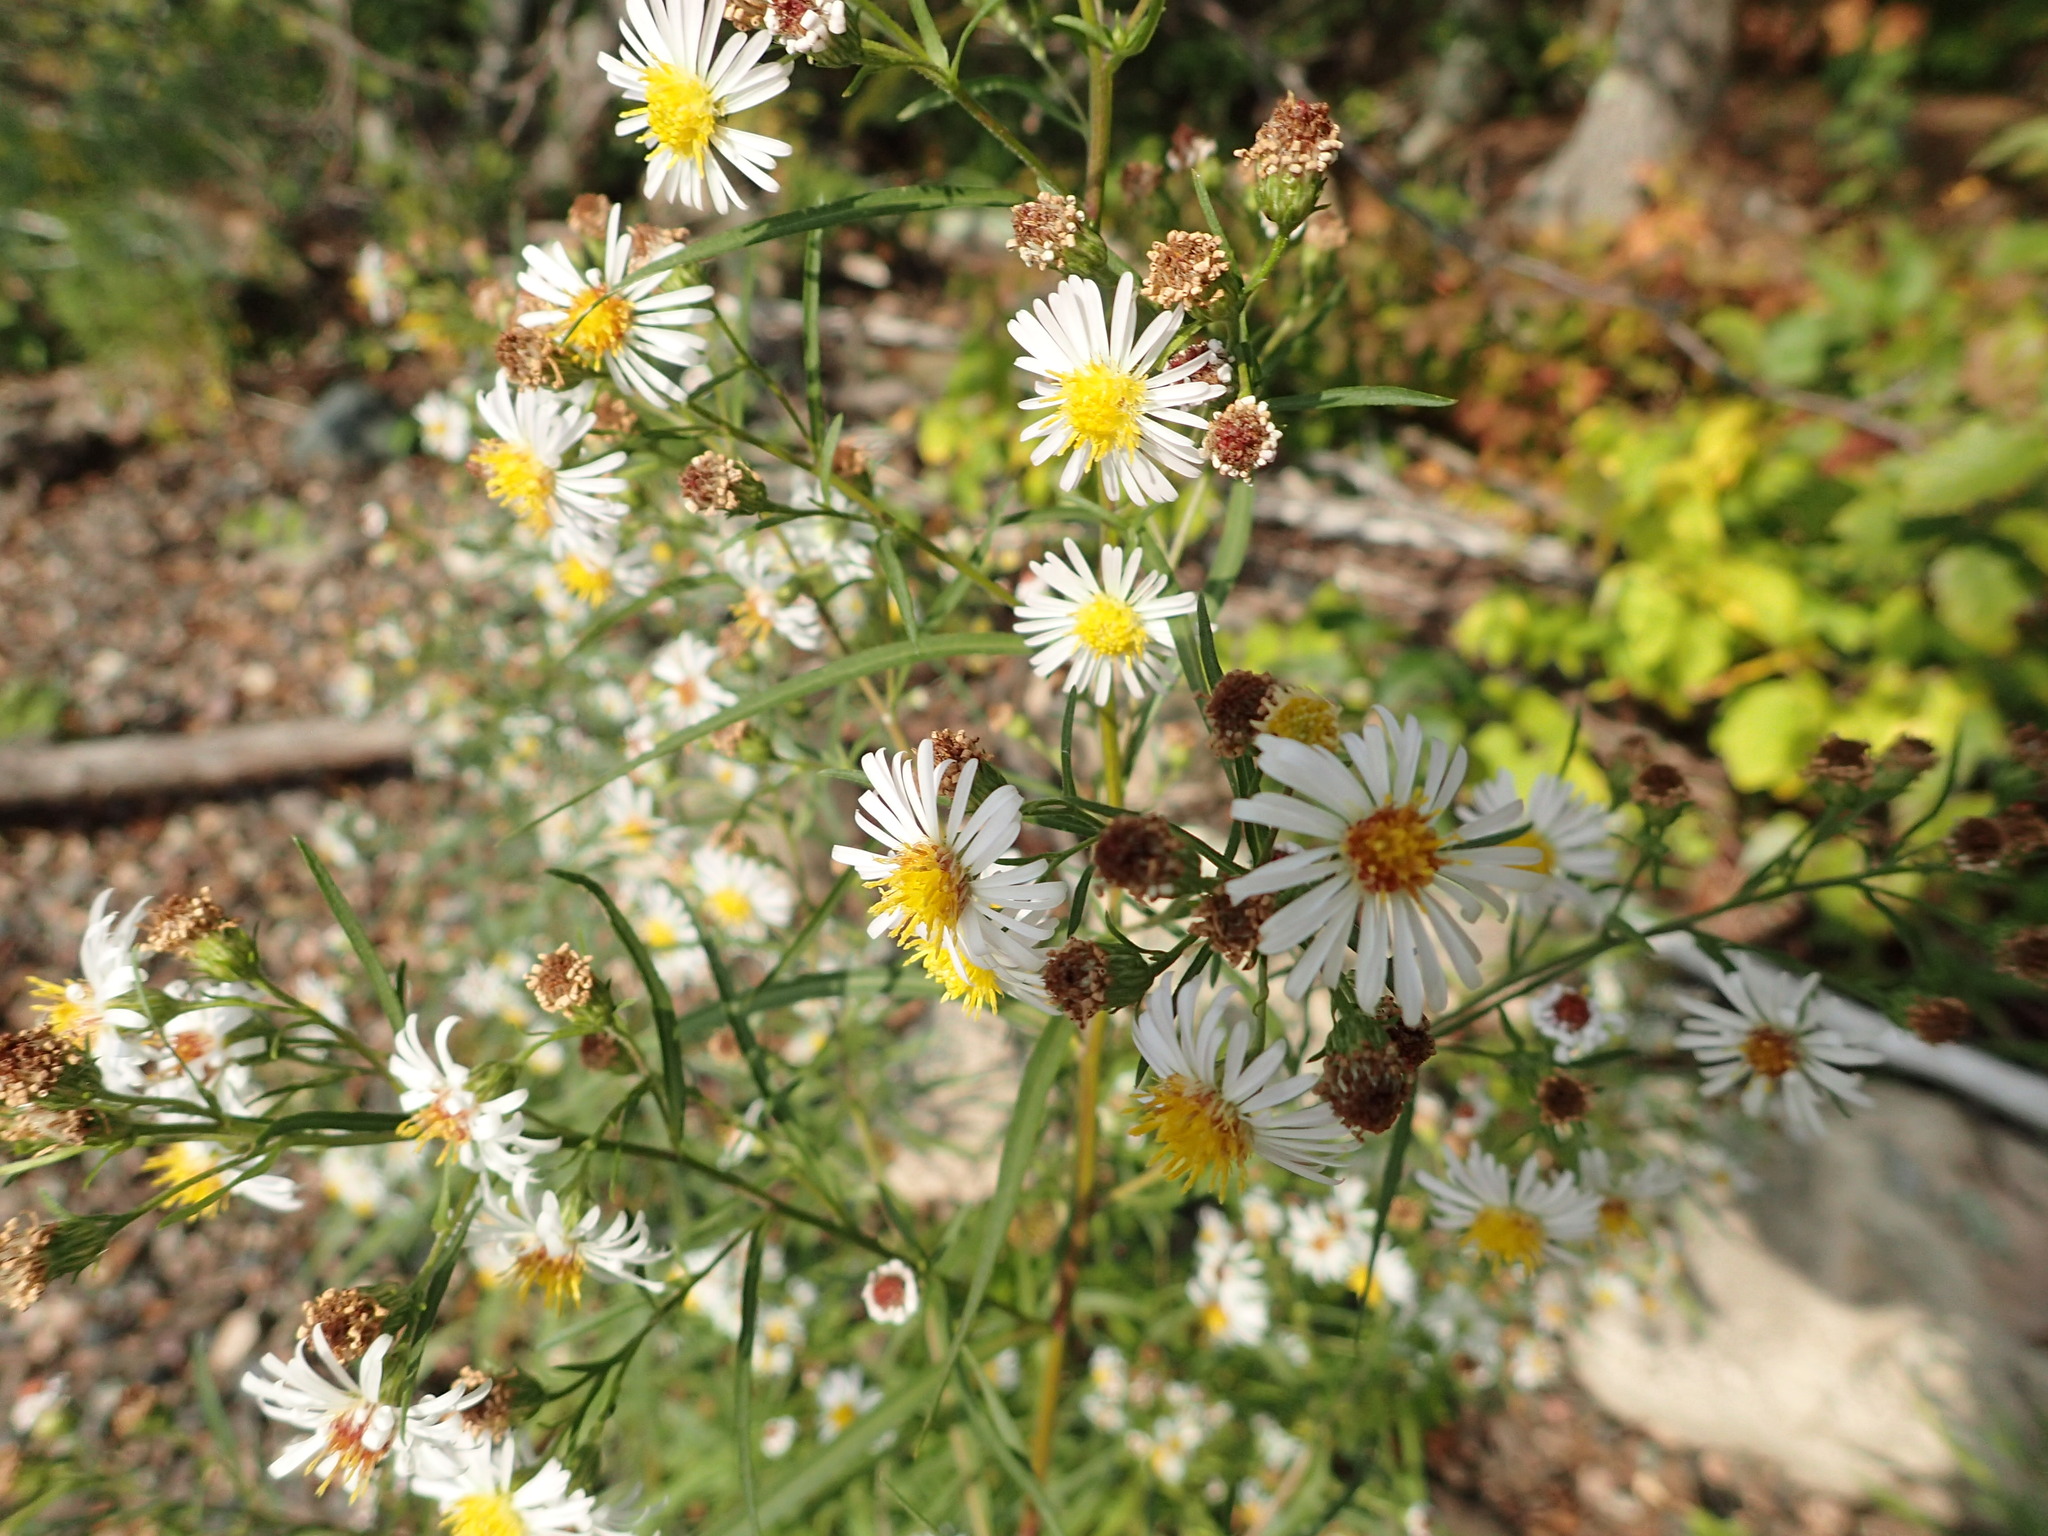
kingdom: Plantae
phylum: Tracheophyta
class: Magnoliopsida
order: Asterales
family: Asteraceae
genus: Symphyotrichum
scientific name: Symphyotrichum lanceolatum
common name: Panicled aster
